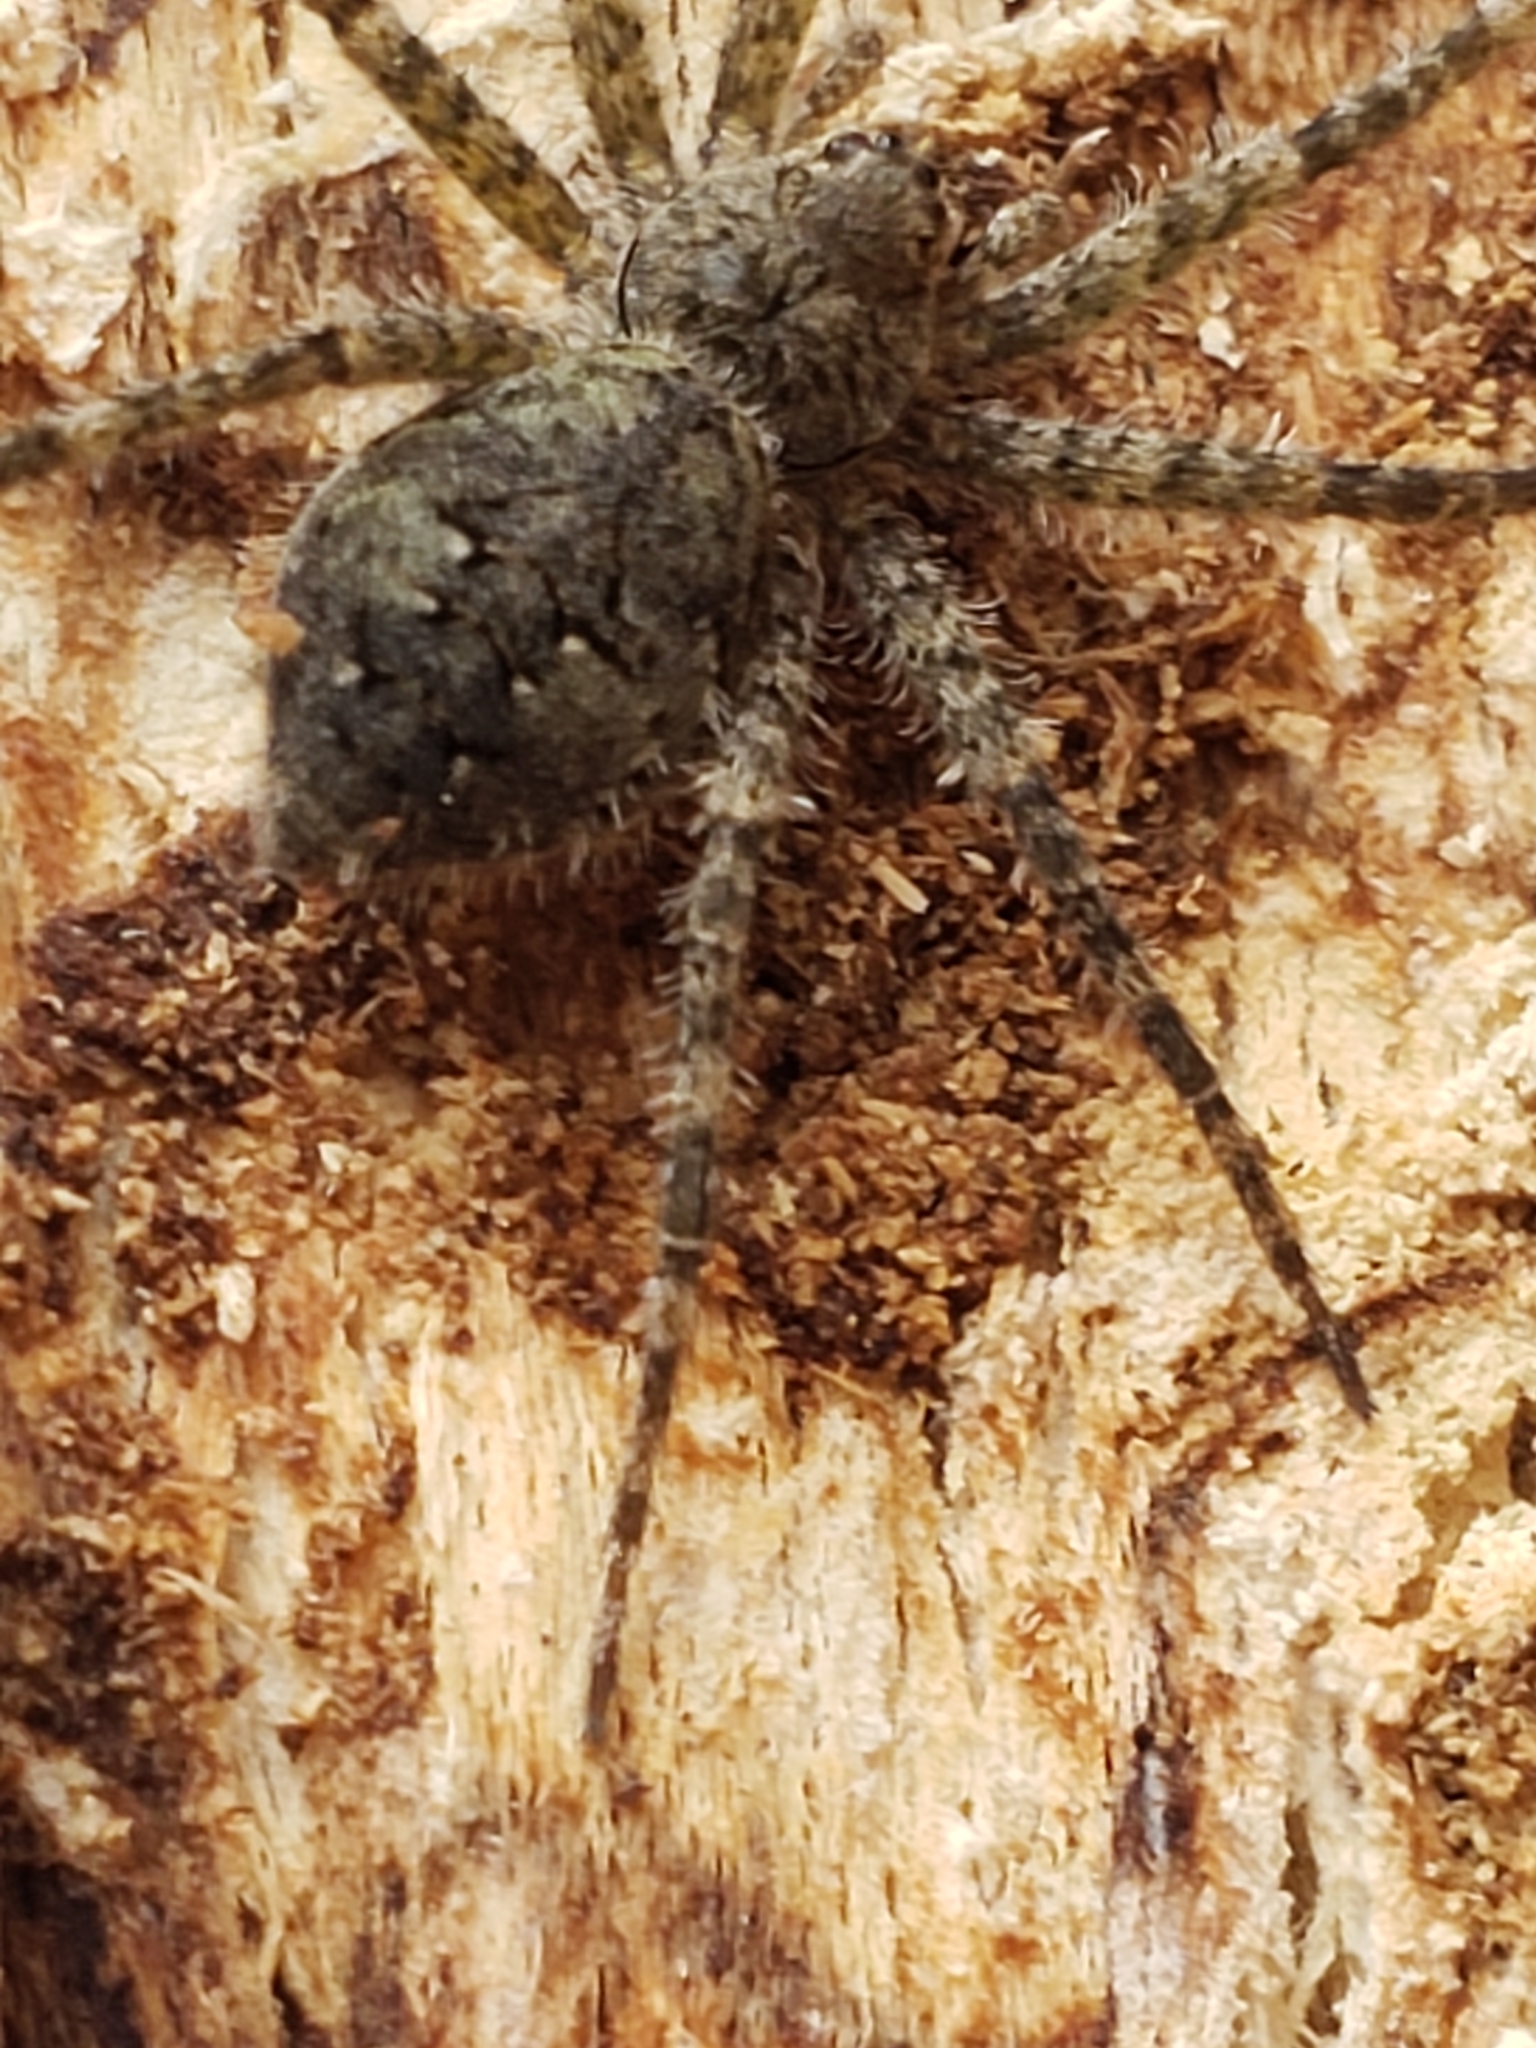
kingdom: Animalia
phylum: Arthropoda
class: Arachnida
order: Araneae
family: Pisauridae
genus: Dolomedes
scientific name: Dolomedes albineus
